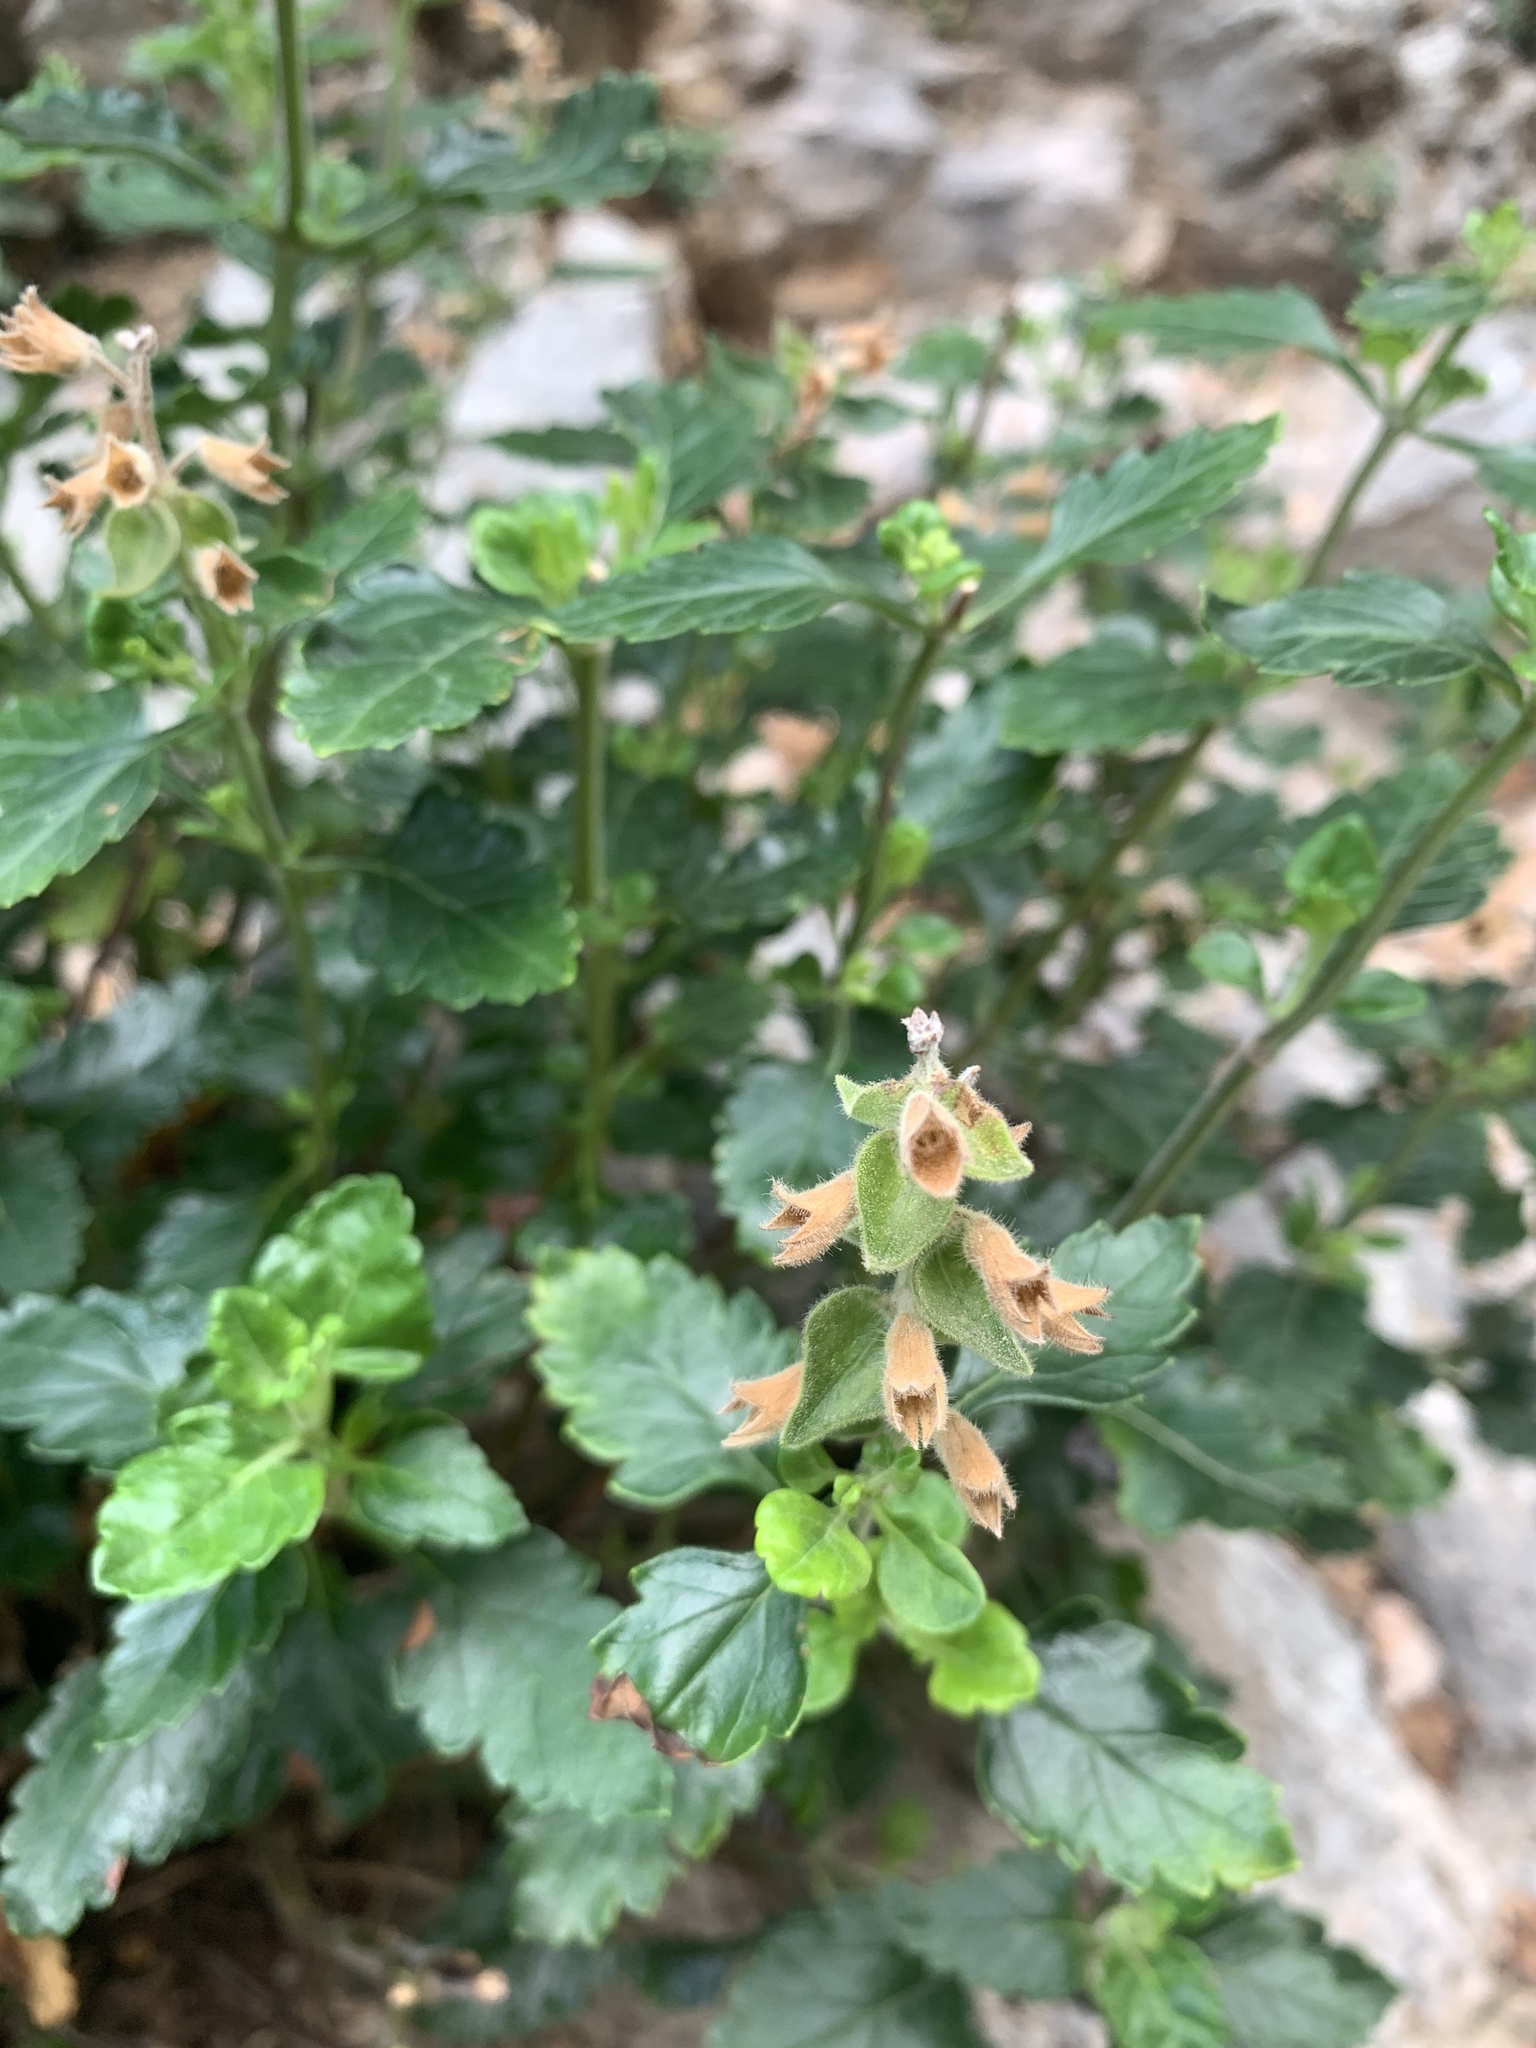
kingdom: Plantae
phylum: Tracheophyta
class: Magnoliopsida
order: Lamiales
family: Lamiaceae
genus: Teucrium
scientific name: Teucrium flavum
